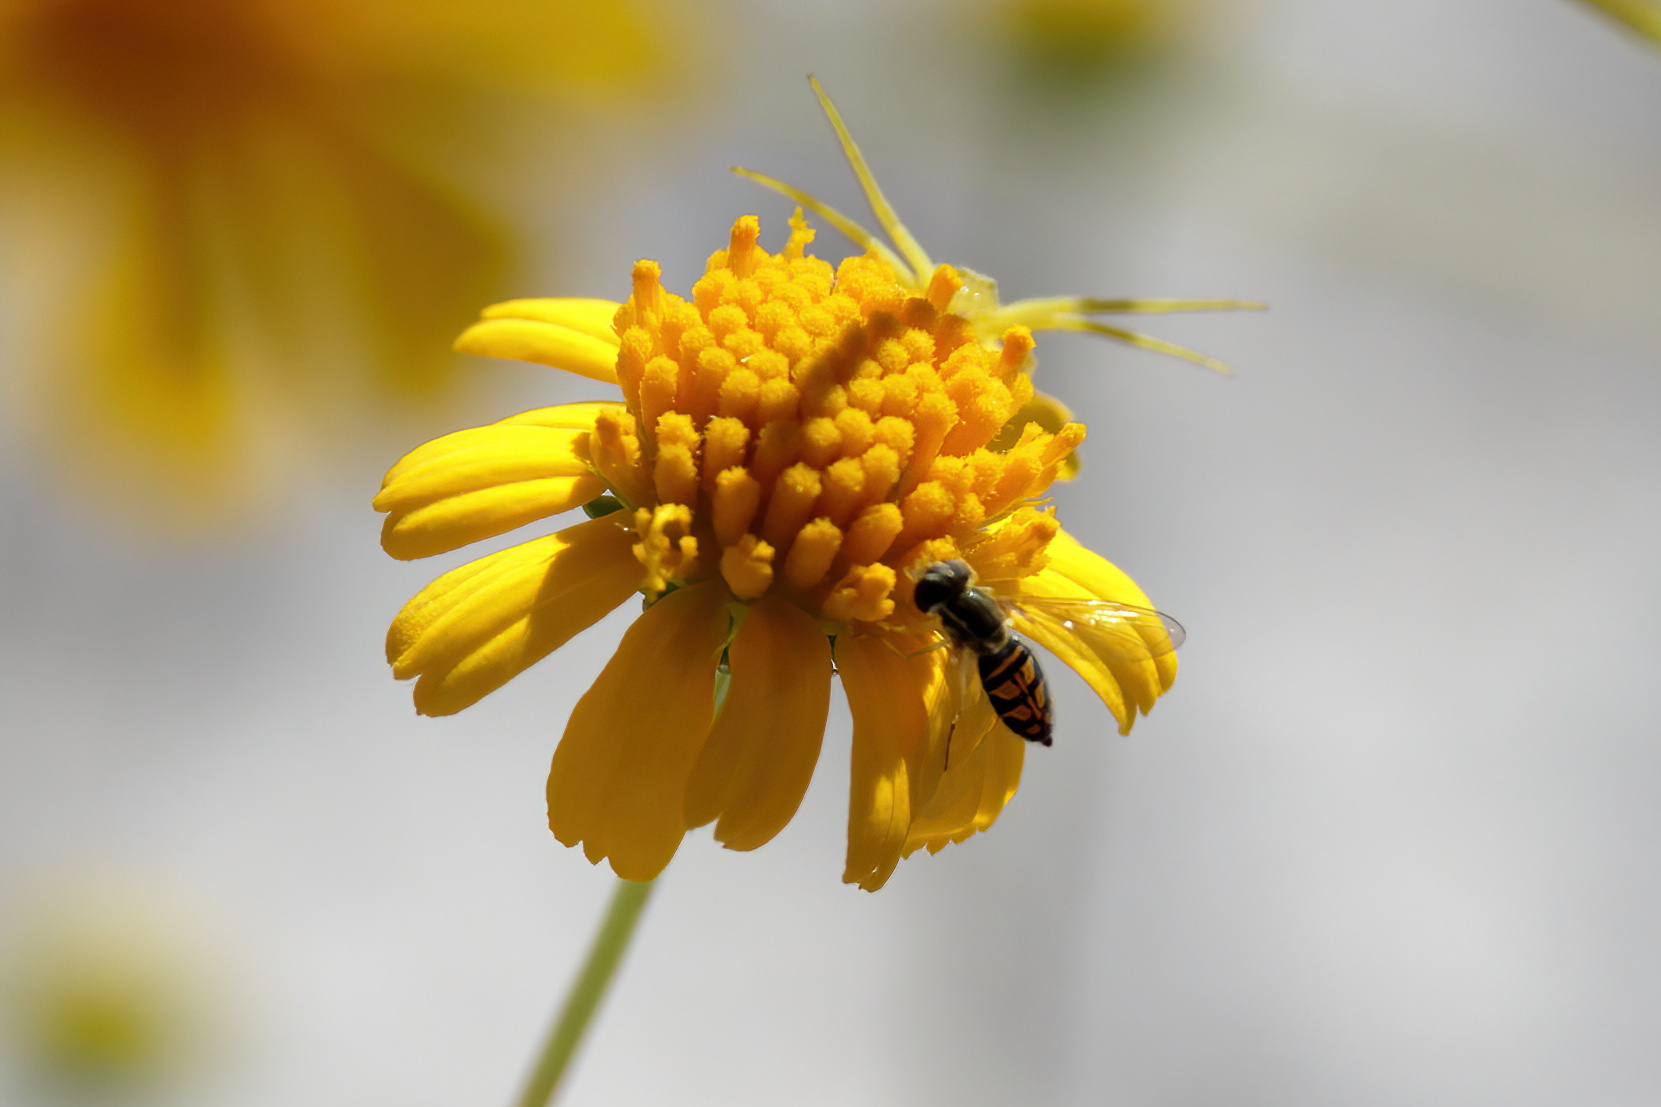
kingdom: Animalia
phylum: Arthropoda
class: Insecta
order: Diptera
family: Syrphidae
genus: Toxomerus
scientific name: Toxomerus marginatus
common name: Syrphid fly
